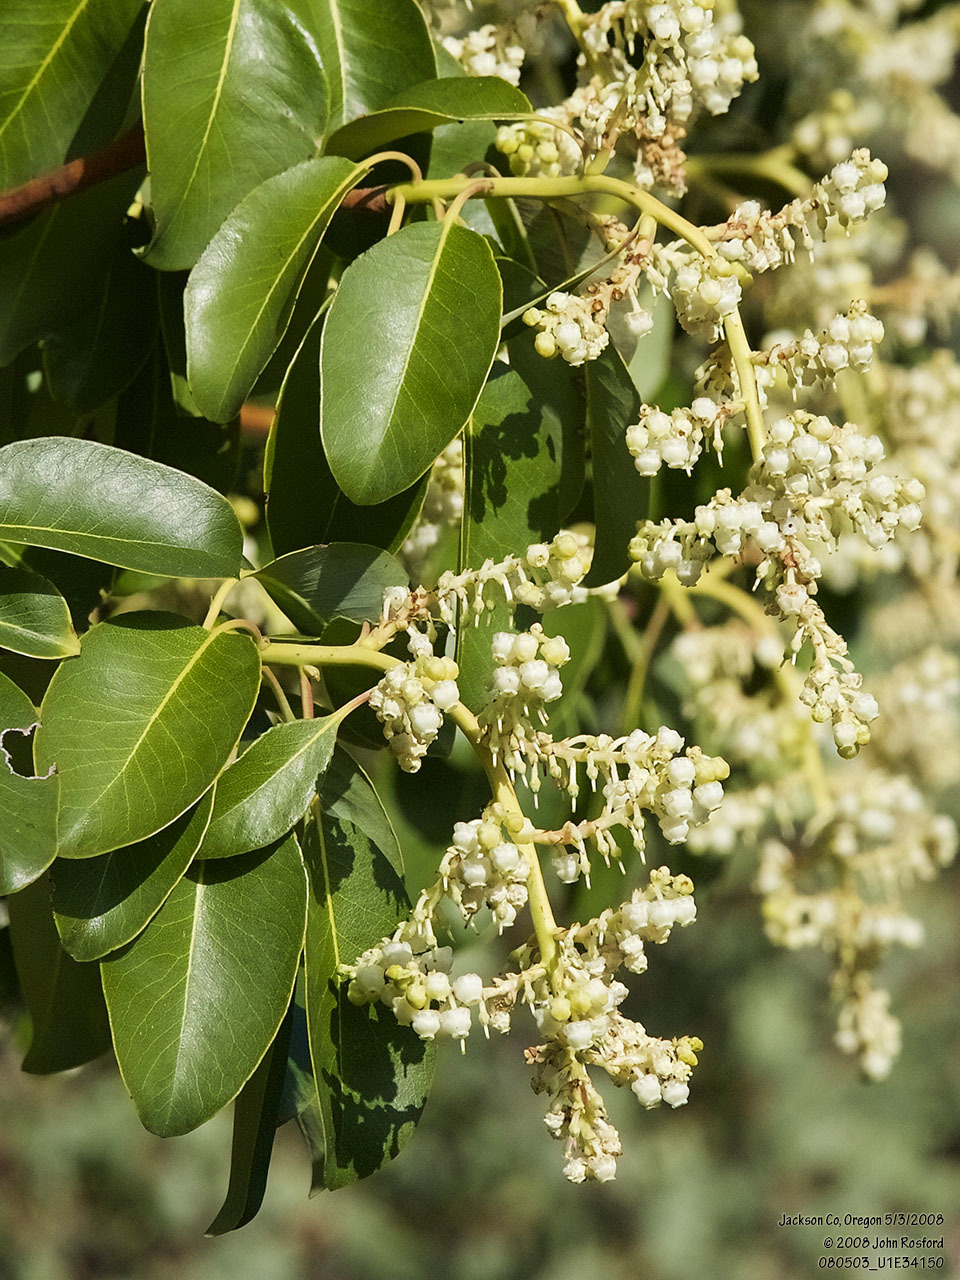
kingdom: Plantae
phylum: Tracheophyta
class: Magnoliopsida
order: Ericales
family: Ericaceae
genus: Arbutus
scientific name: Arbutus menziesii
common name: Pacific madrone
